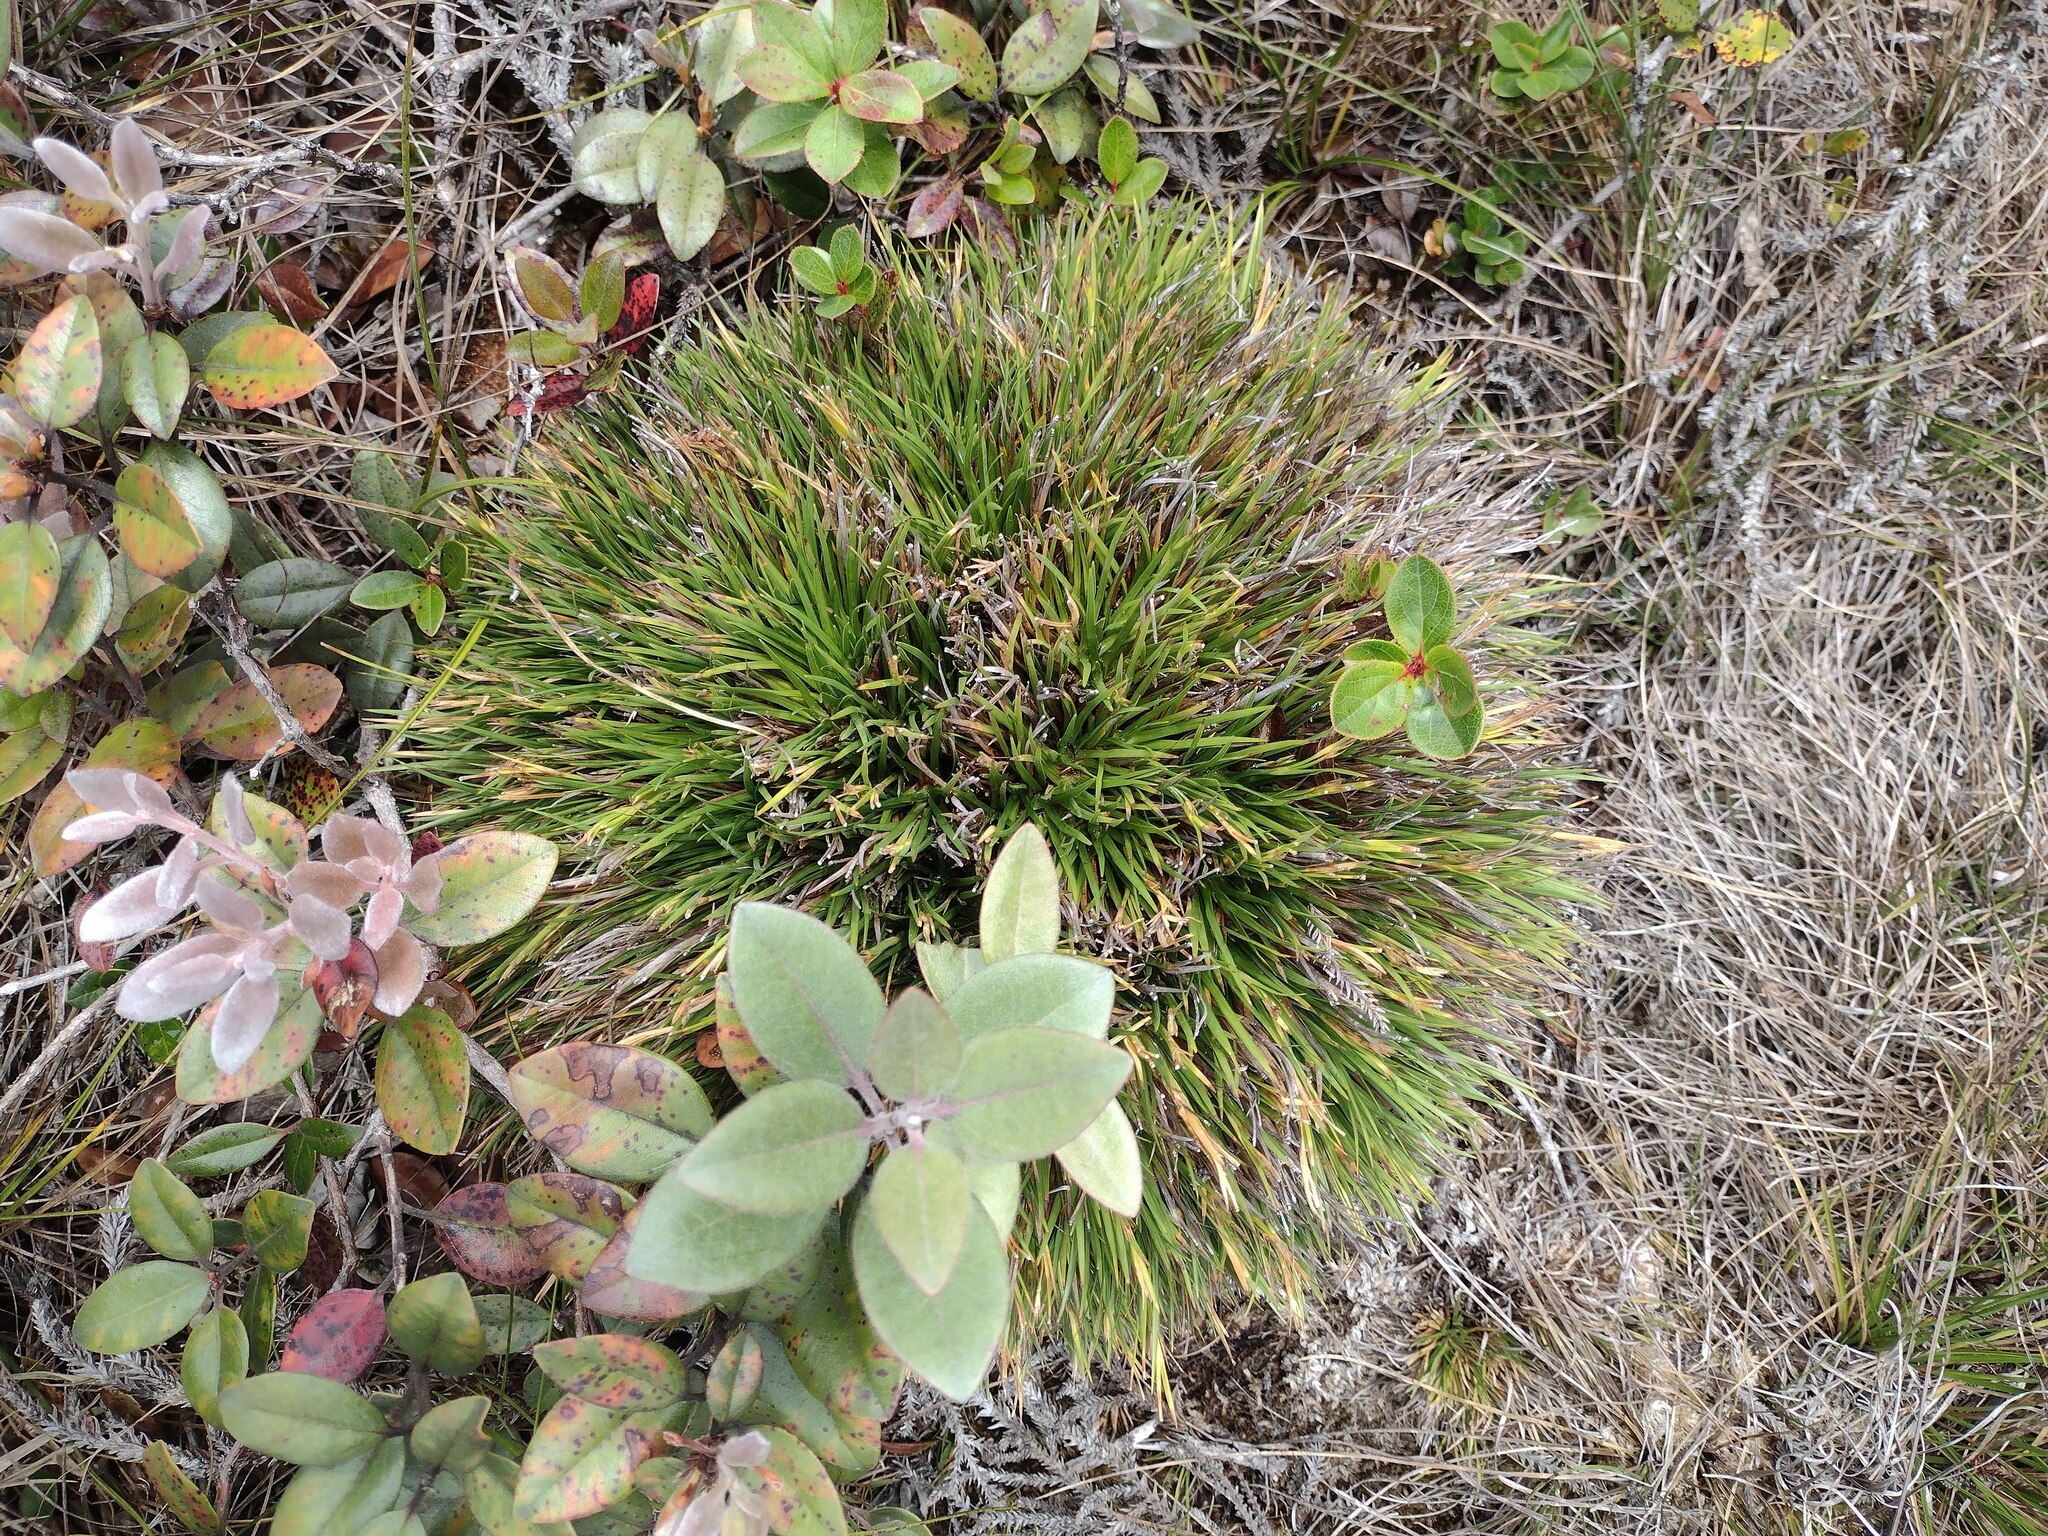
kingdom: Plantae
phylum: Tracheophyta
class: Liliopsida
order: Poales
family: Cyperaceae
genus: Oreobolus
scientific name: Oreobolus furcatus
